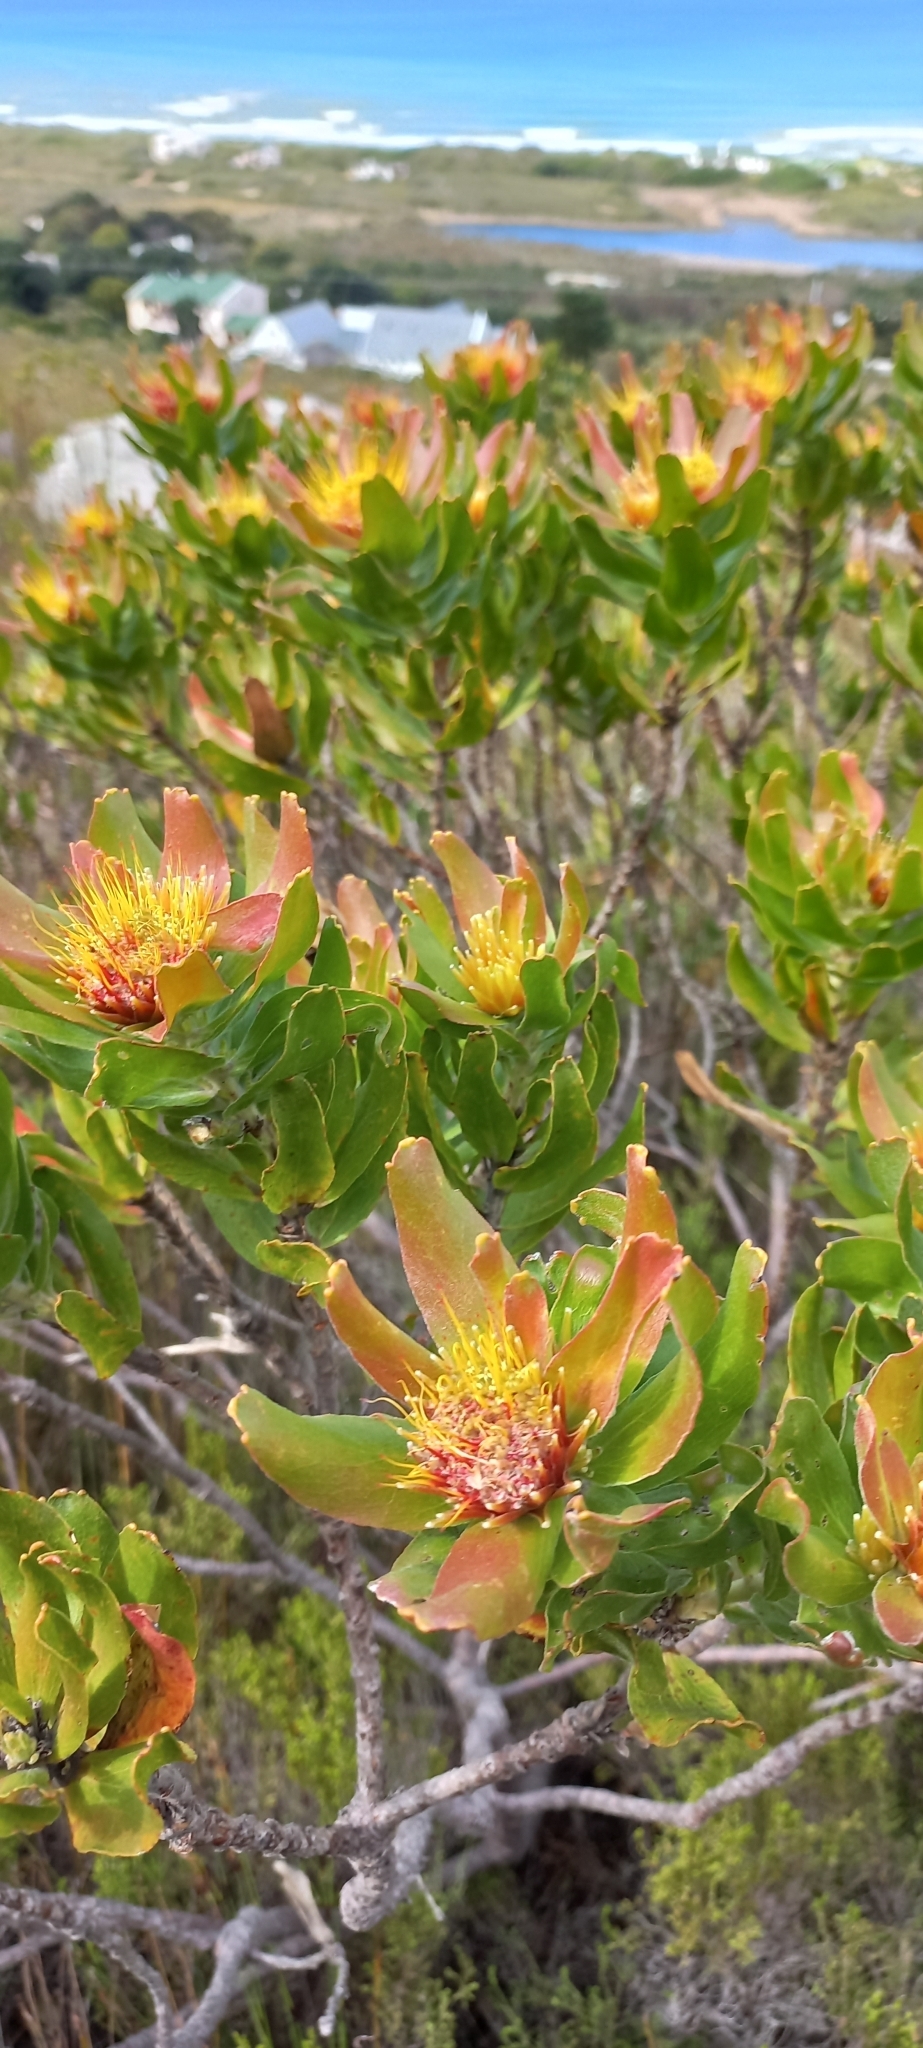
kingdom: Plantae
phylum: Tracheophyta
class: Magnoliopsida
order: Proteales
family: Proteaceae
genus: Leucospermum
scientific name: Leucospermum oleifolium
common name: Matches
